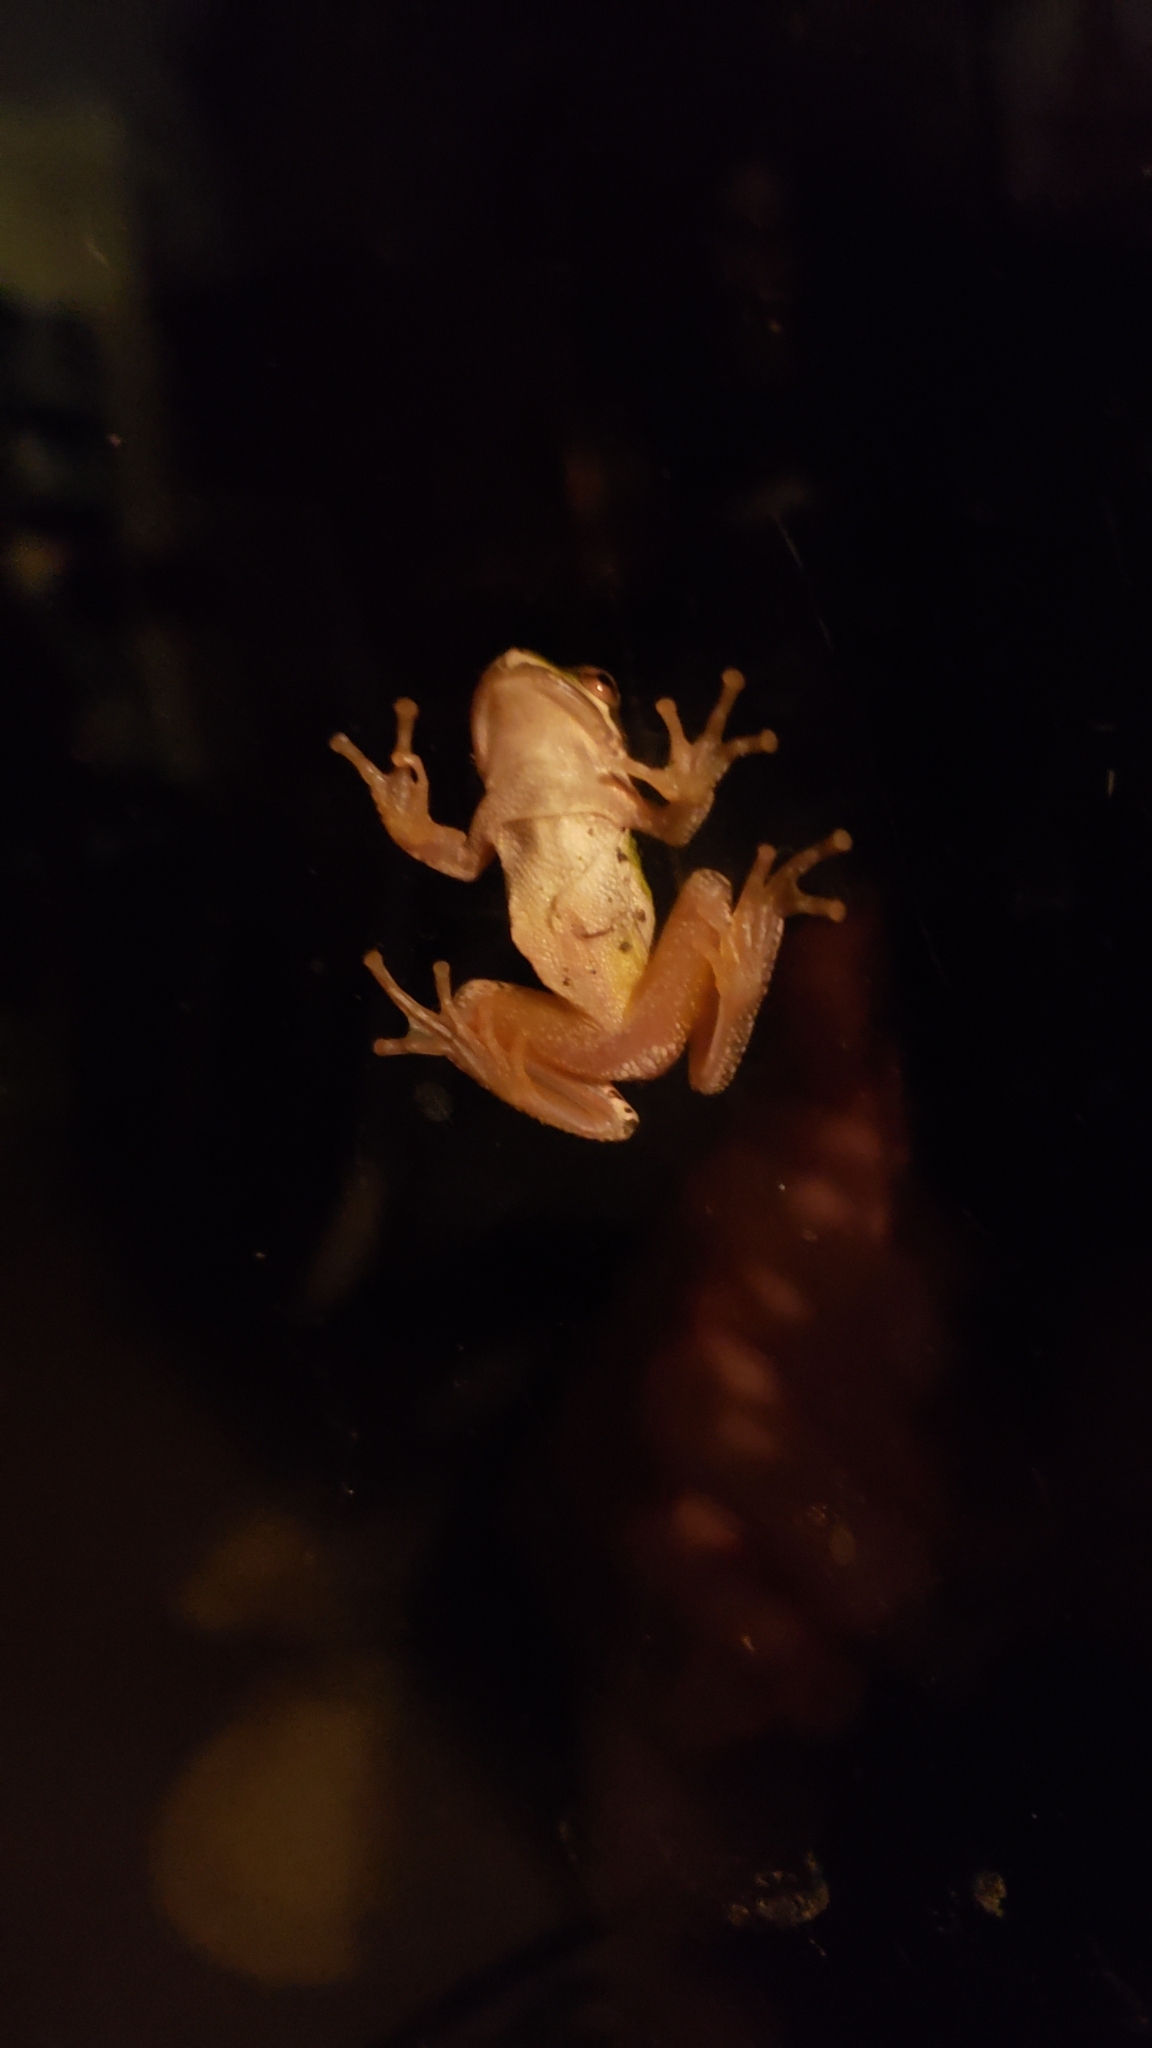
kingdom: Animalia
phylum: Chordata
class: Amphibia
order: Anura
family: Hylidae
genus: Pseudacris
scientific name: Pseudacris regilla
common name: Pacific chorus frog
